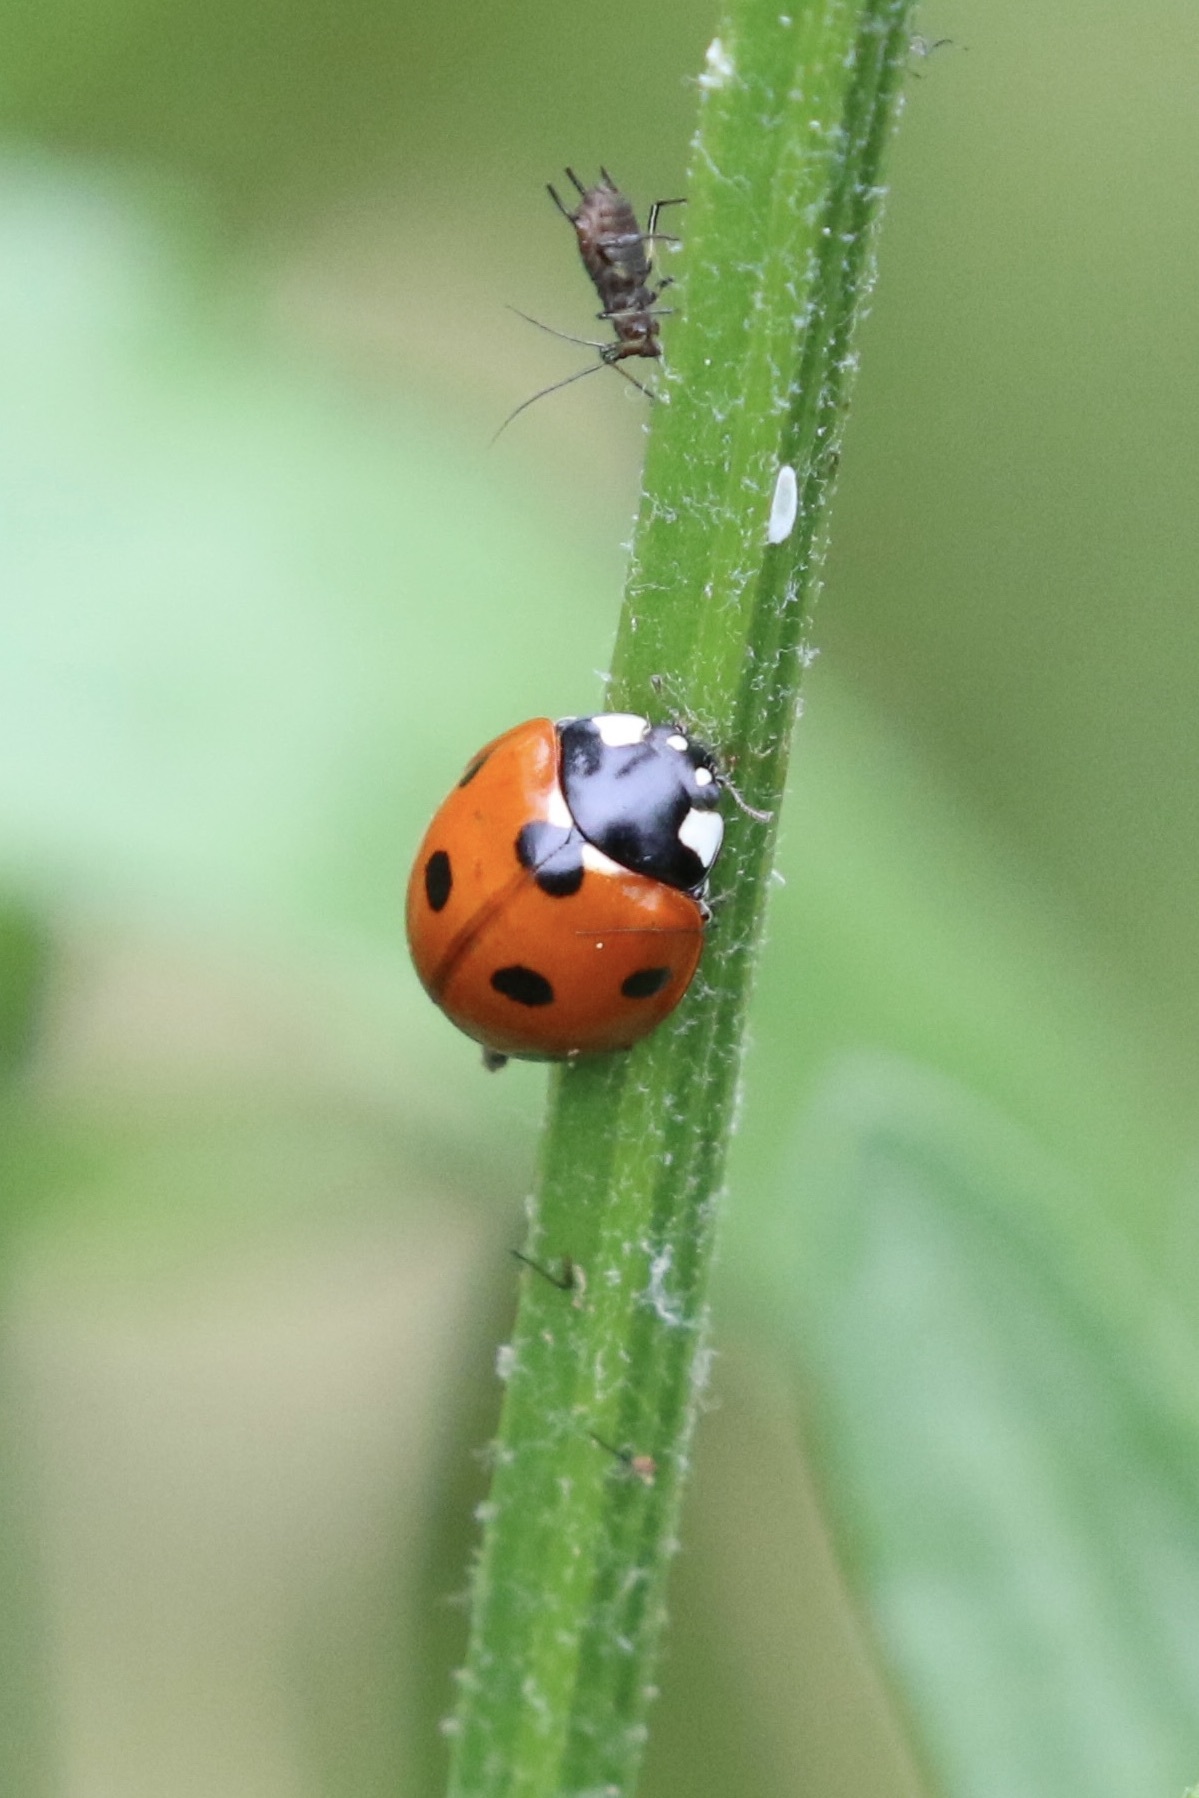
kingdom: Animalia
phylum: Arthropoda
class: Insecta
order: Coleoptera
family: Coccinellidae
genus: Coccinella
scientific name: Coccinella septempunctata
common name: Sevenspotted lady beetle
